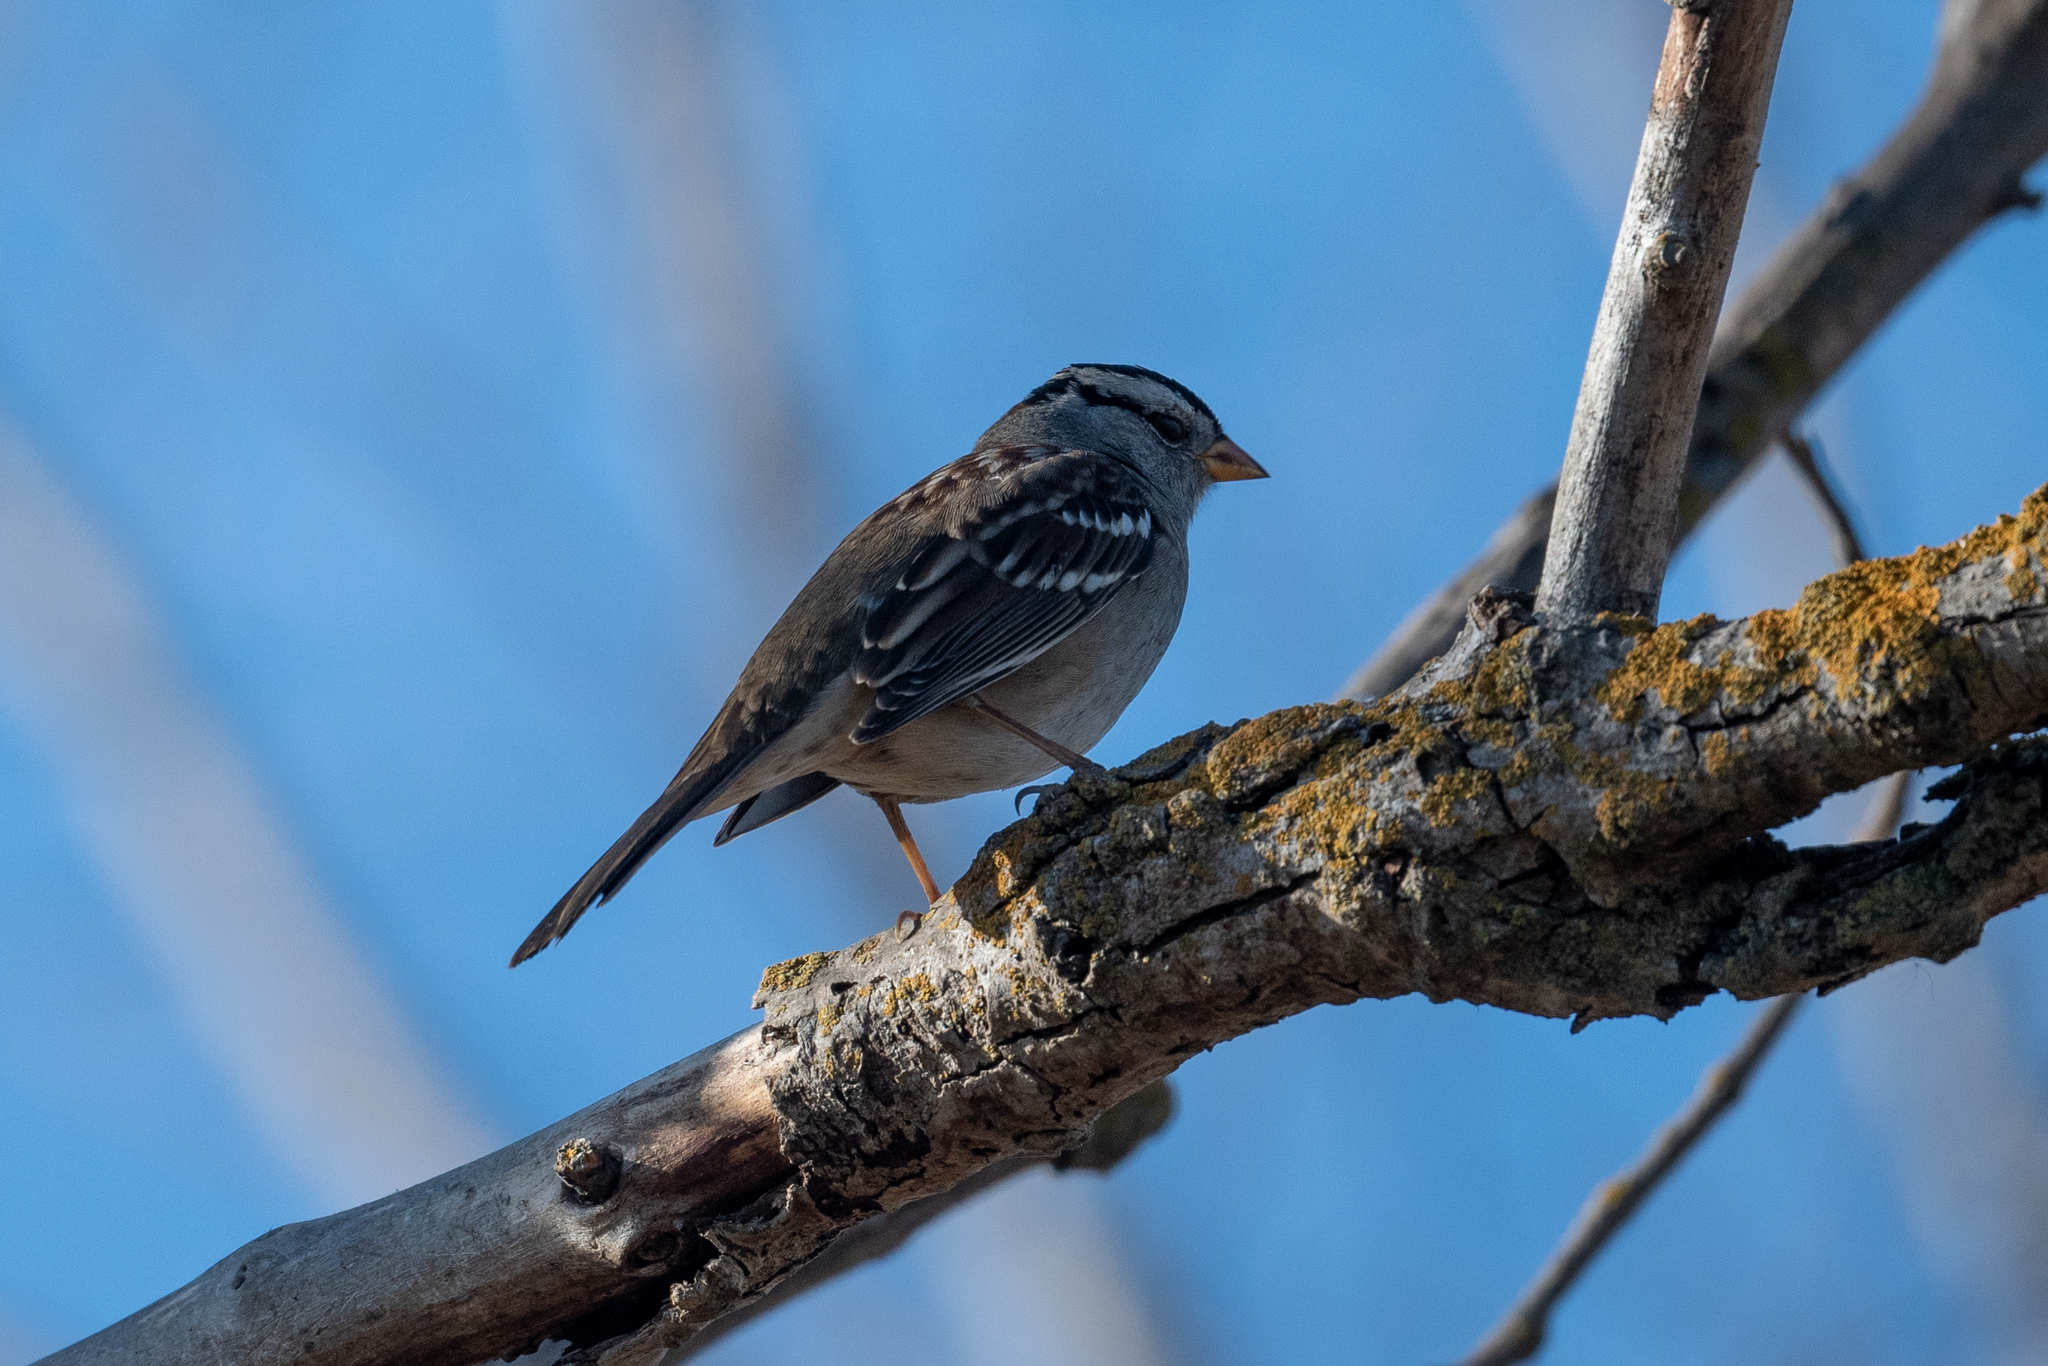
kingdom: Animalia
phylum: Chordata
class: Aves
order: Passeriformes
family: Passerellidae
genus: Zonotrichia
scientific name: Zonotrichia leucophrys
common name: White-crowned sparrow
